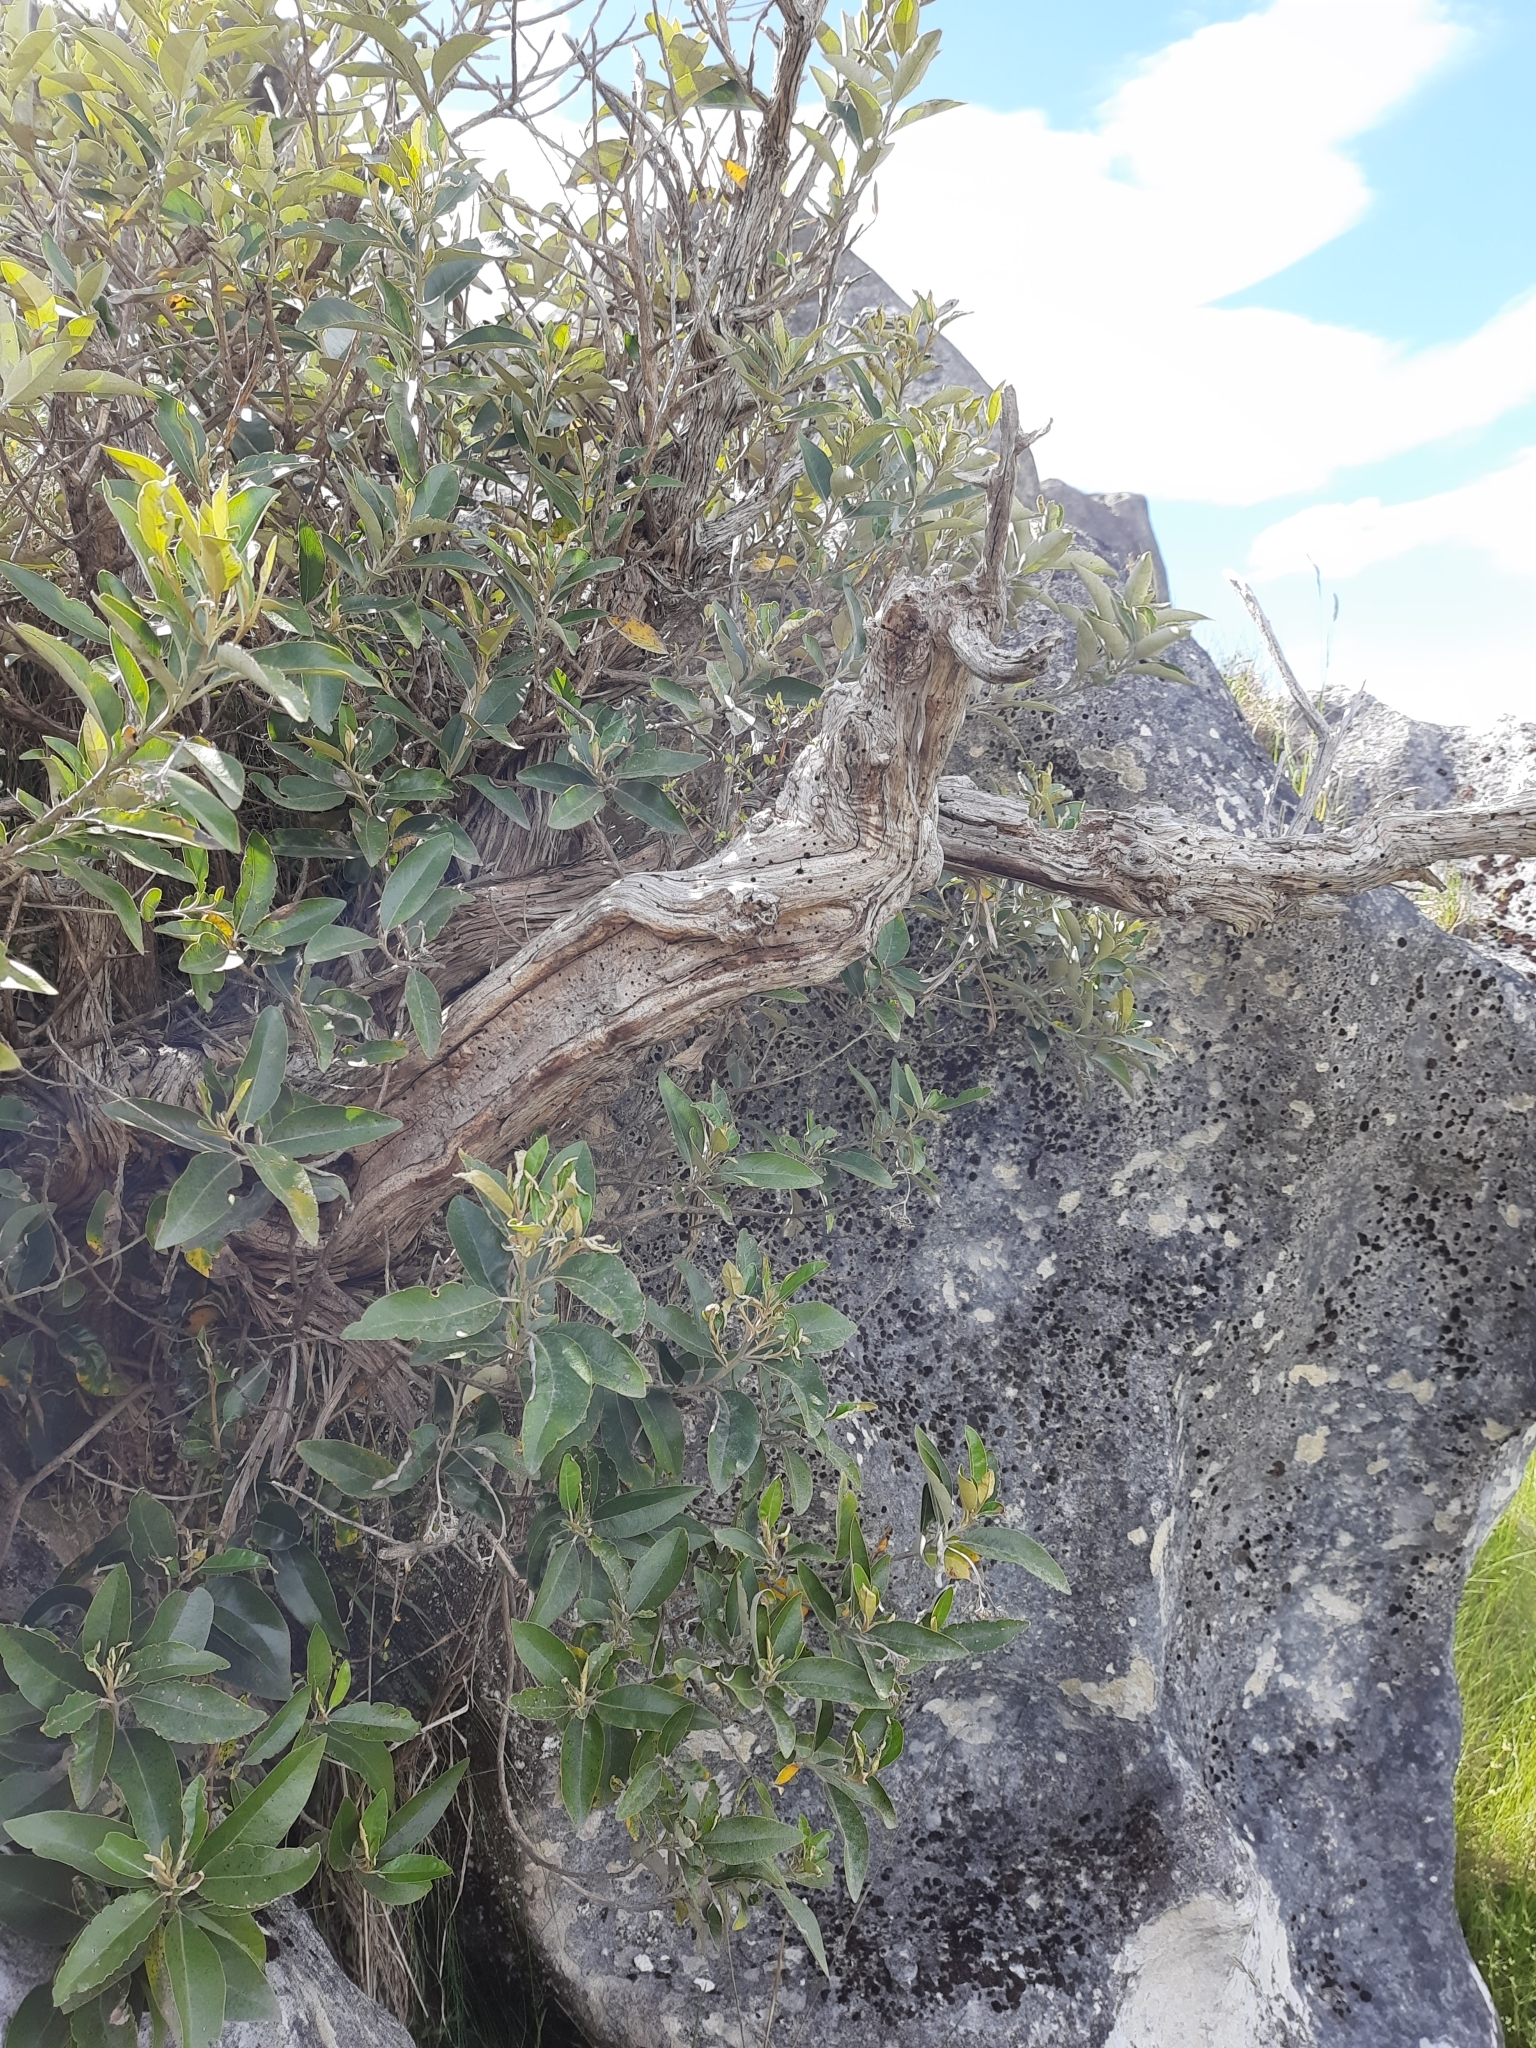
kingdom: Plantae
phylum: Tracheophyta
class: Magnoliopsida
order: Asterales
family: Asteraceae
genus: Olearia
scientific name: Olearia avicenniifolia
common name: Mangrove-leaf daisybush
